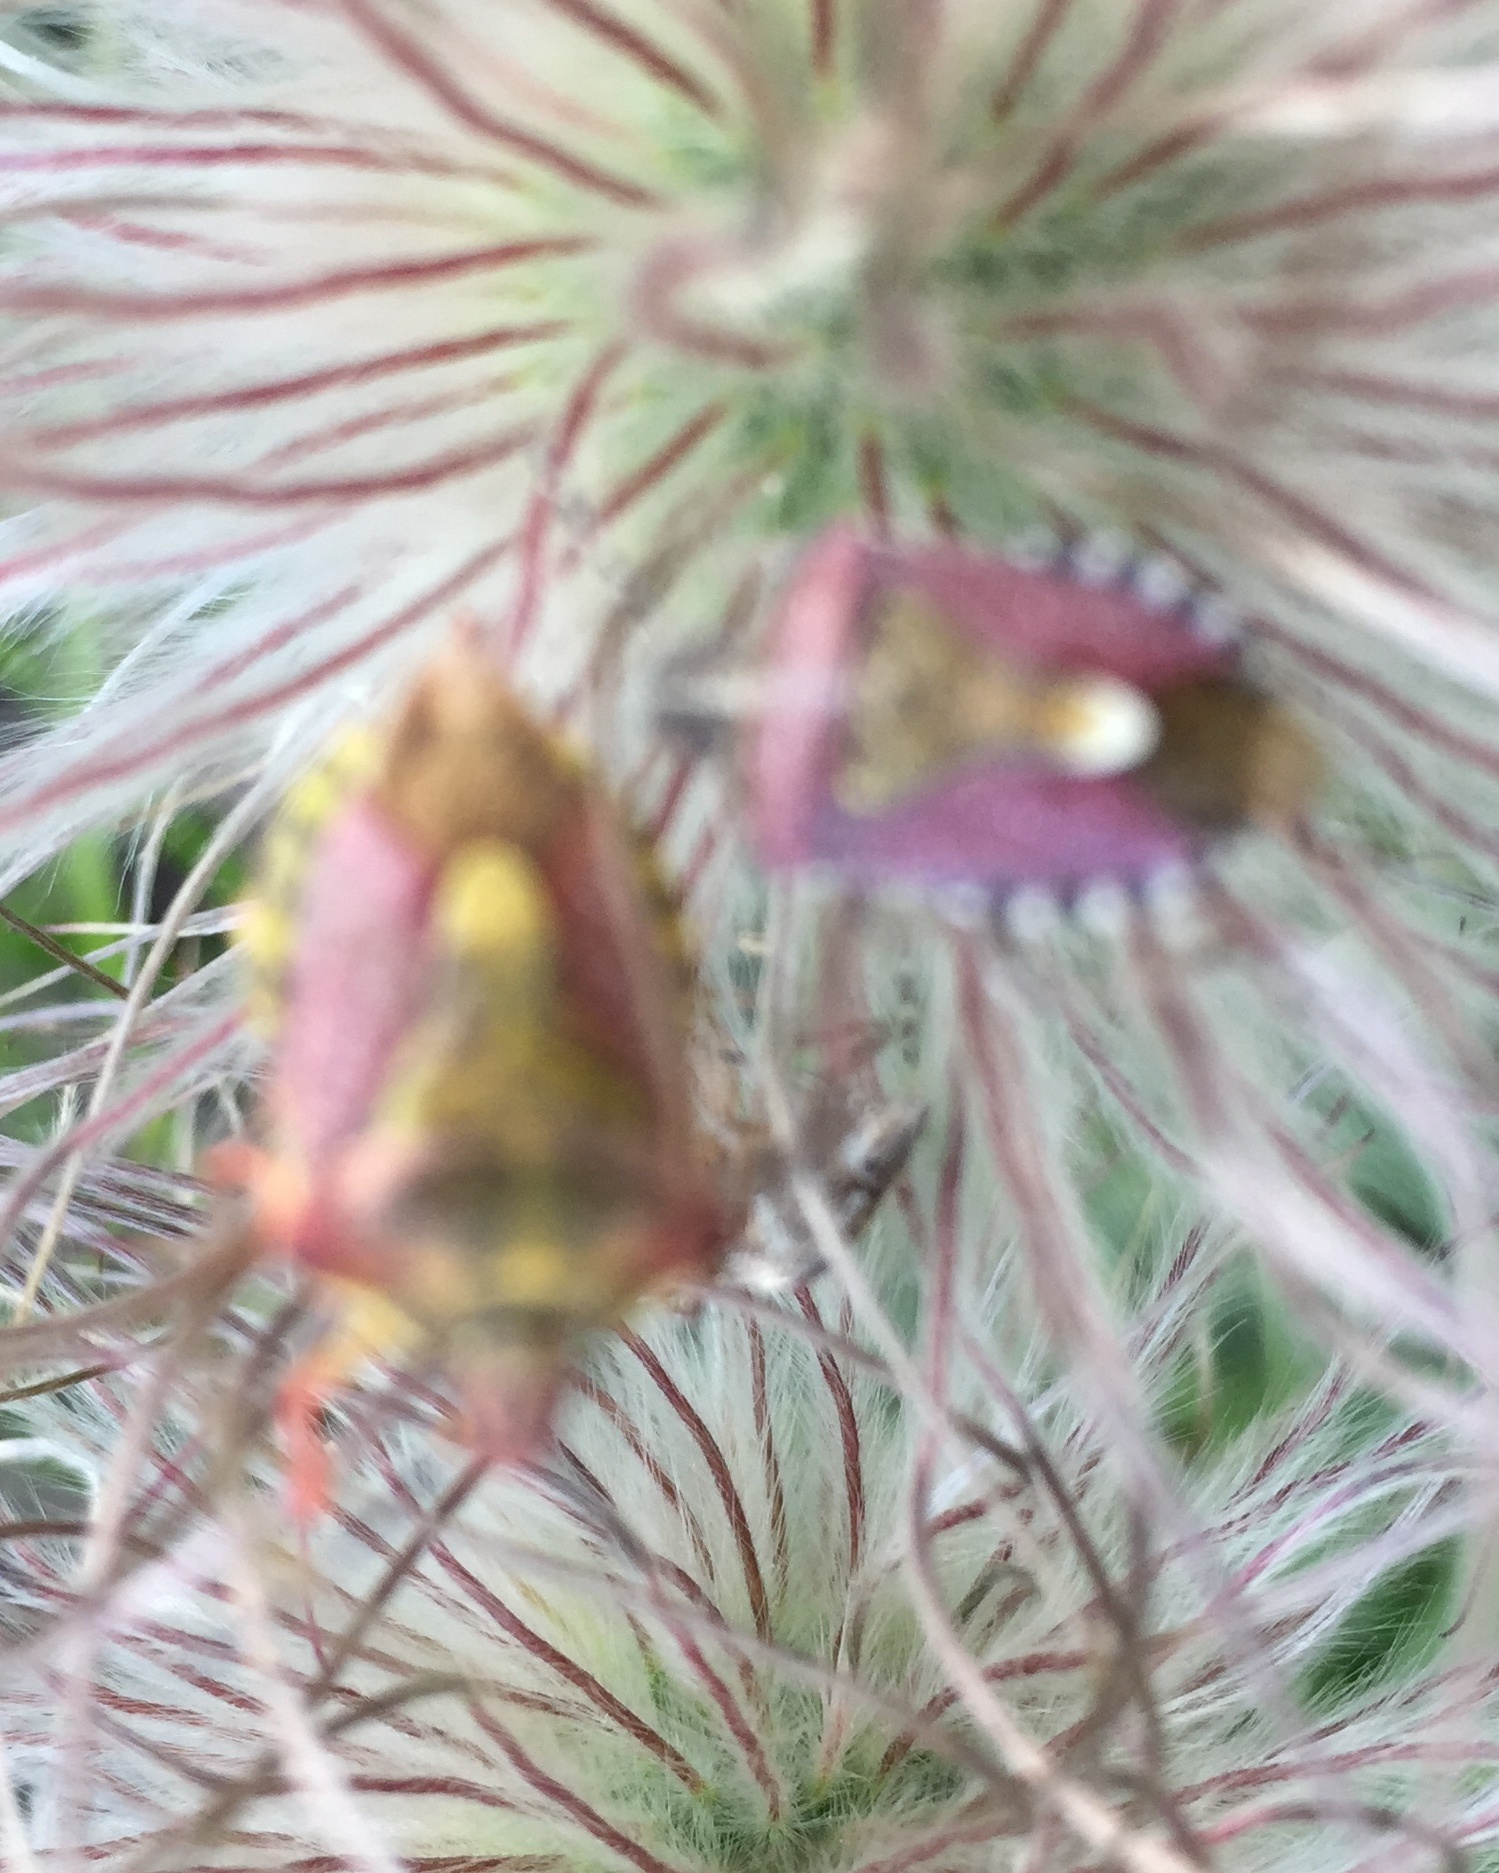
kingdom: Animalia
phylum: Arthropoda
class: Insecta
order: Hemiptera
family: Pentatomidae
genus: Dolycoris
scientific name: Dolycoris baccarum
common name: Sloe bug
